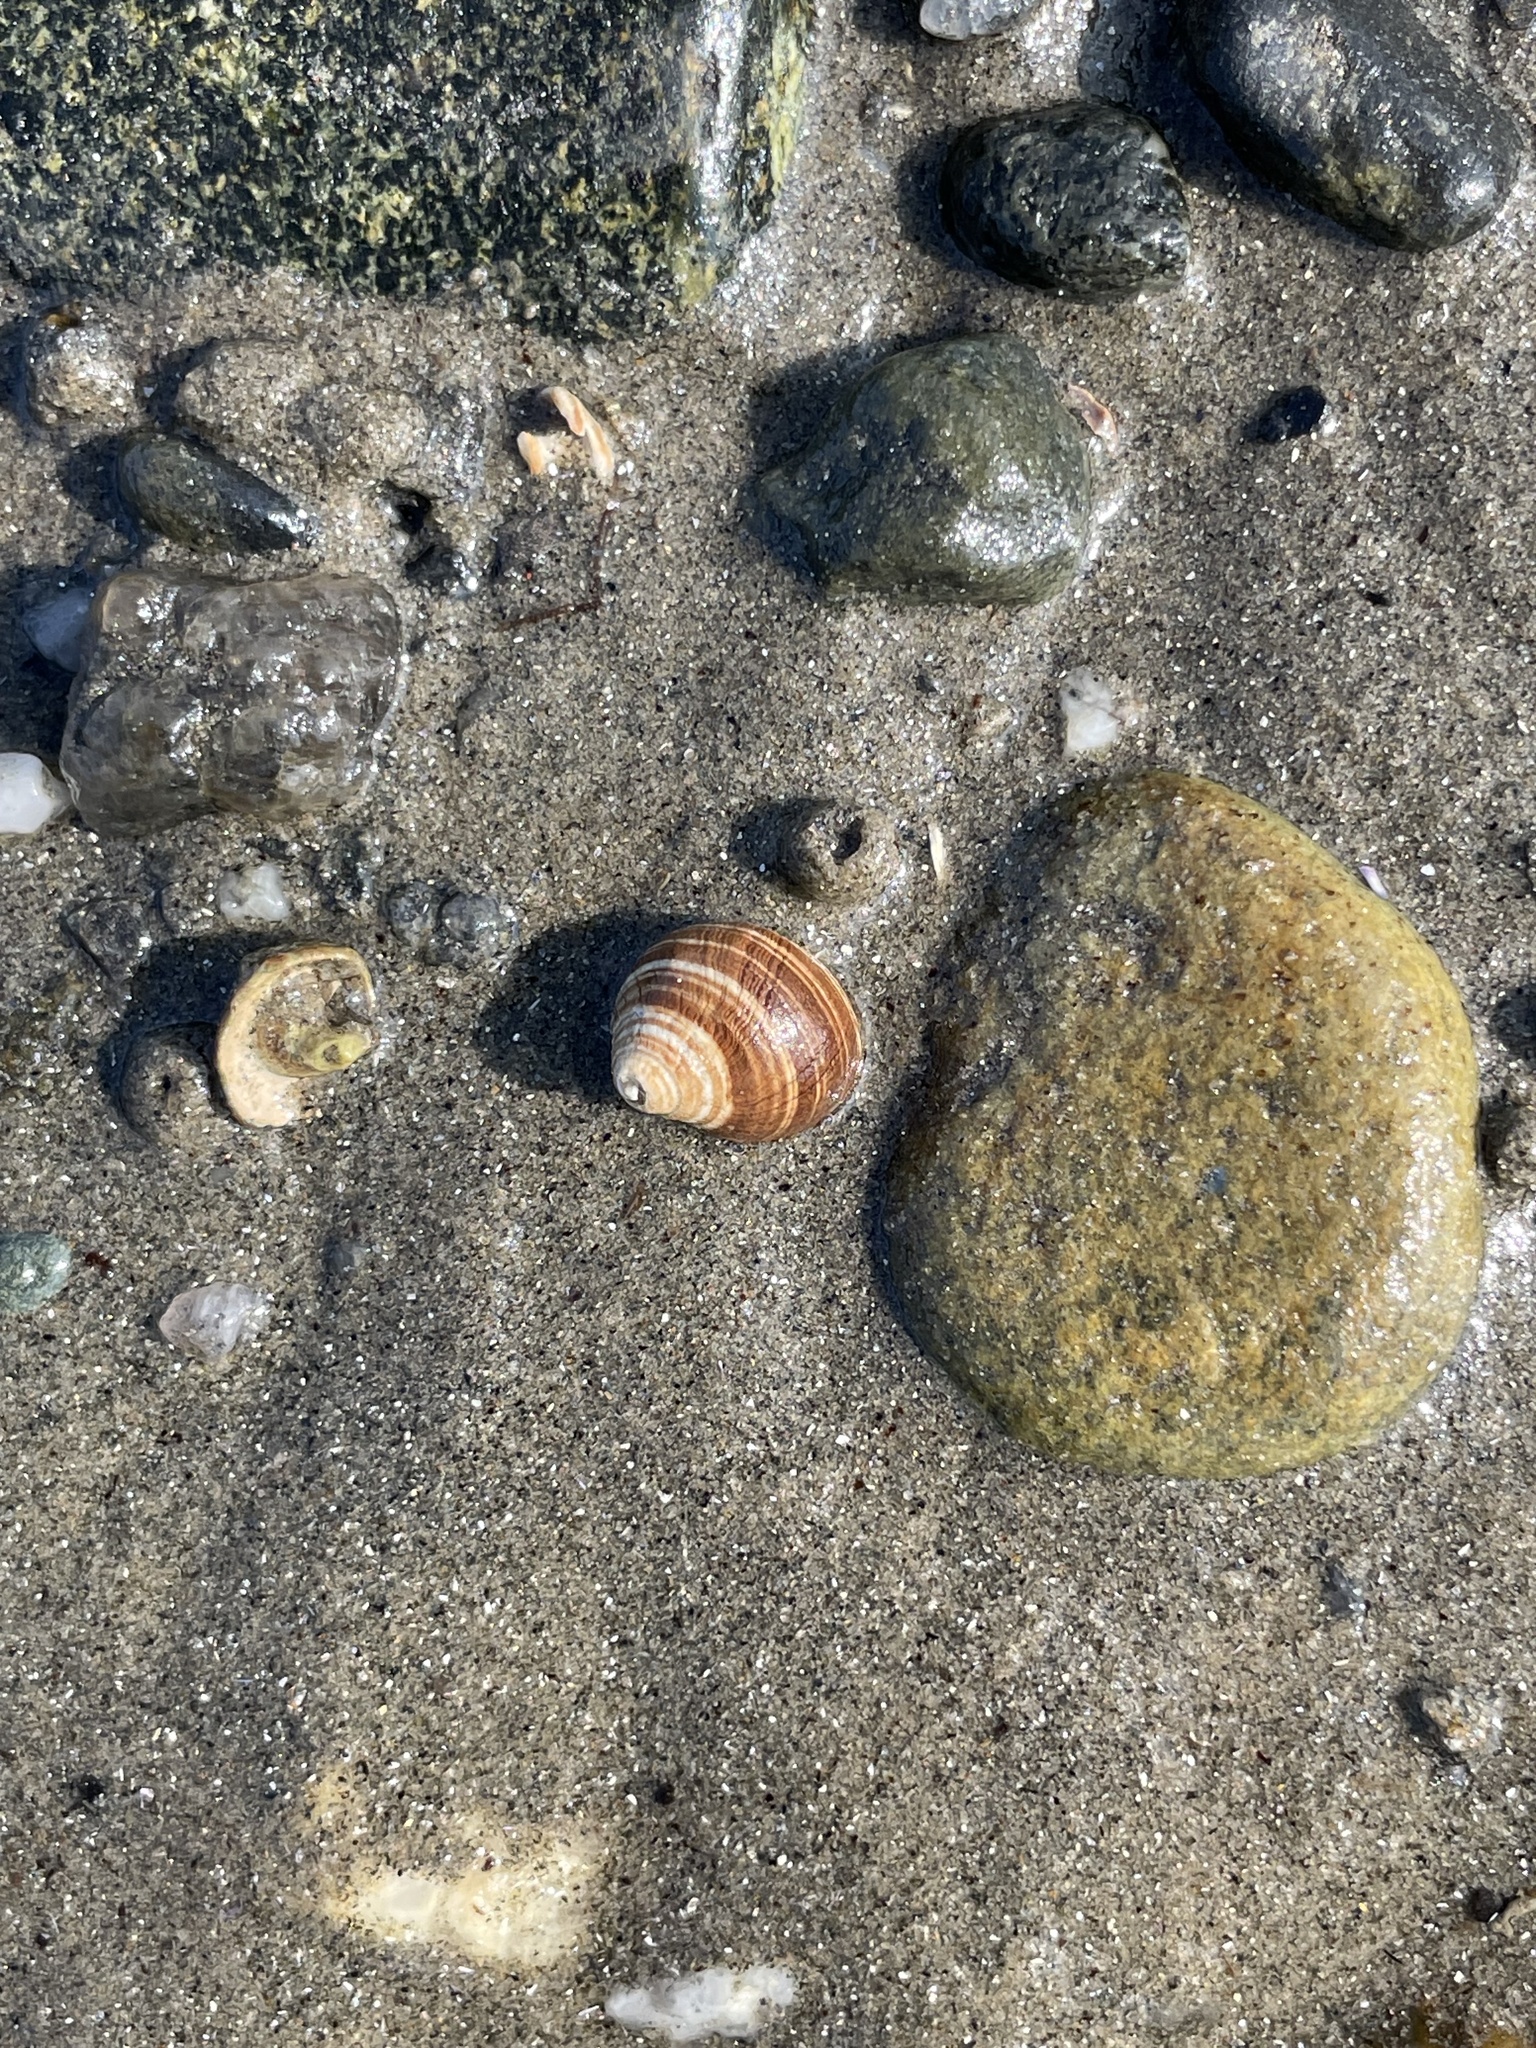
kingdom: Animalia
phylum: Mollusca
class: Gastropoda
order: Littorinimorpha
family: Littorinidae
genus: Littorina
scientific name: Littorina littorea
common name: Common periwinkle
